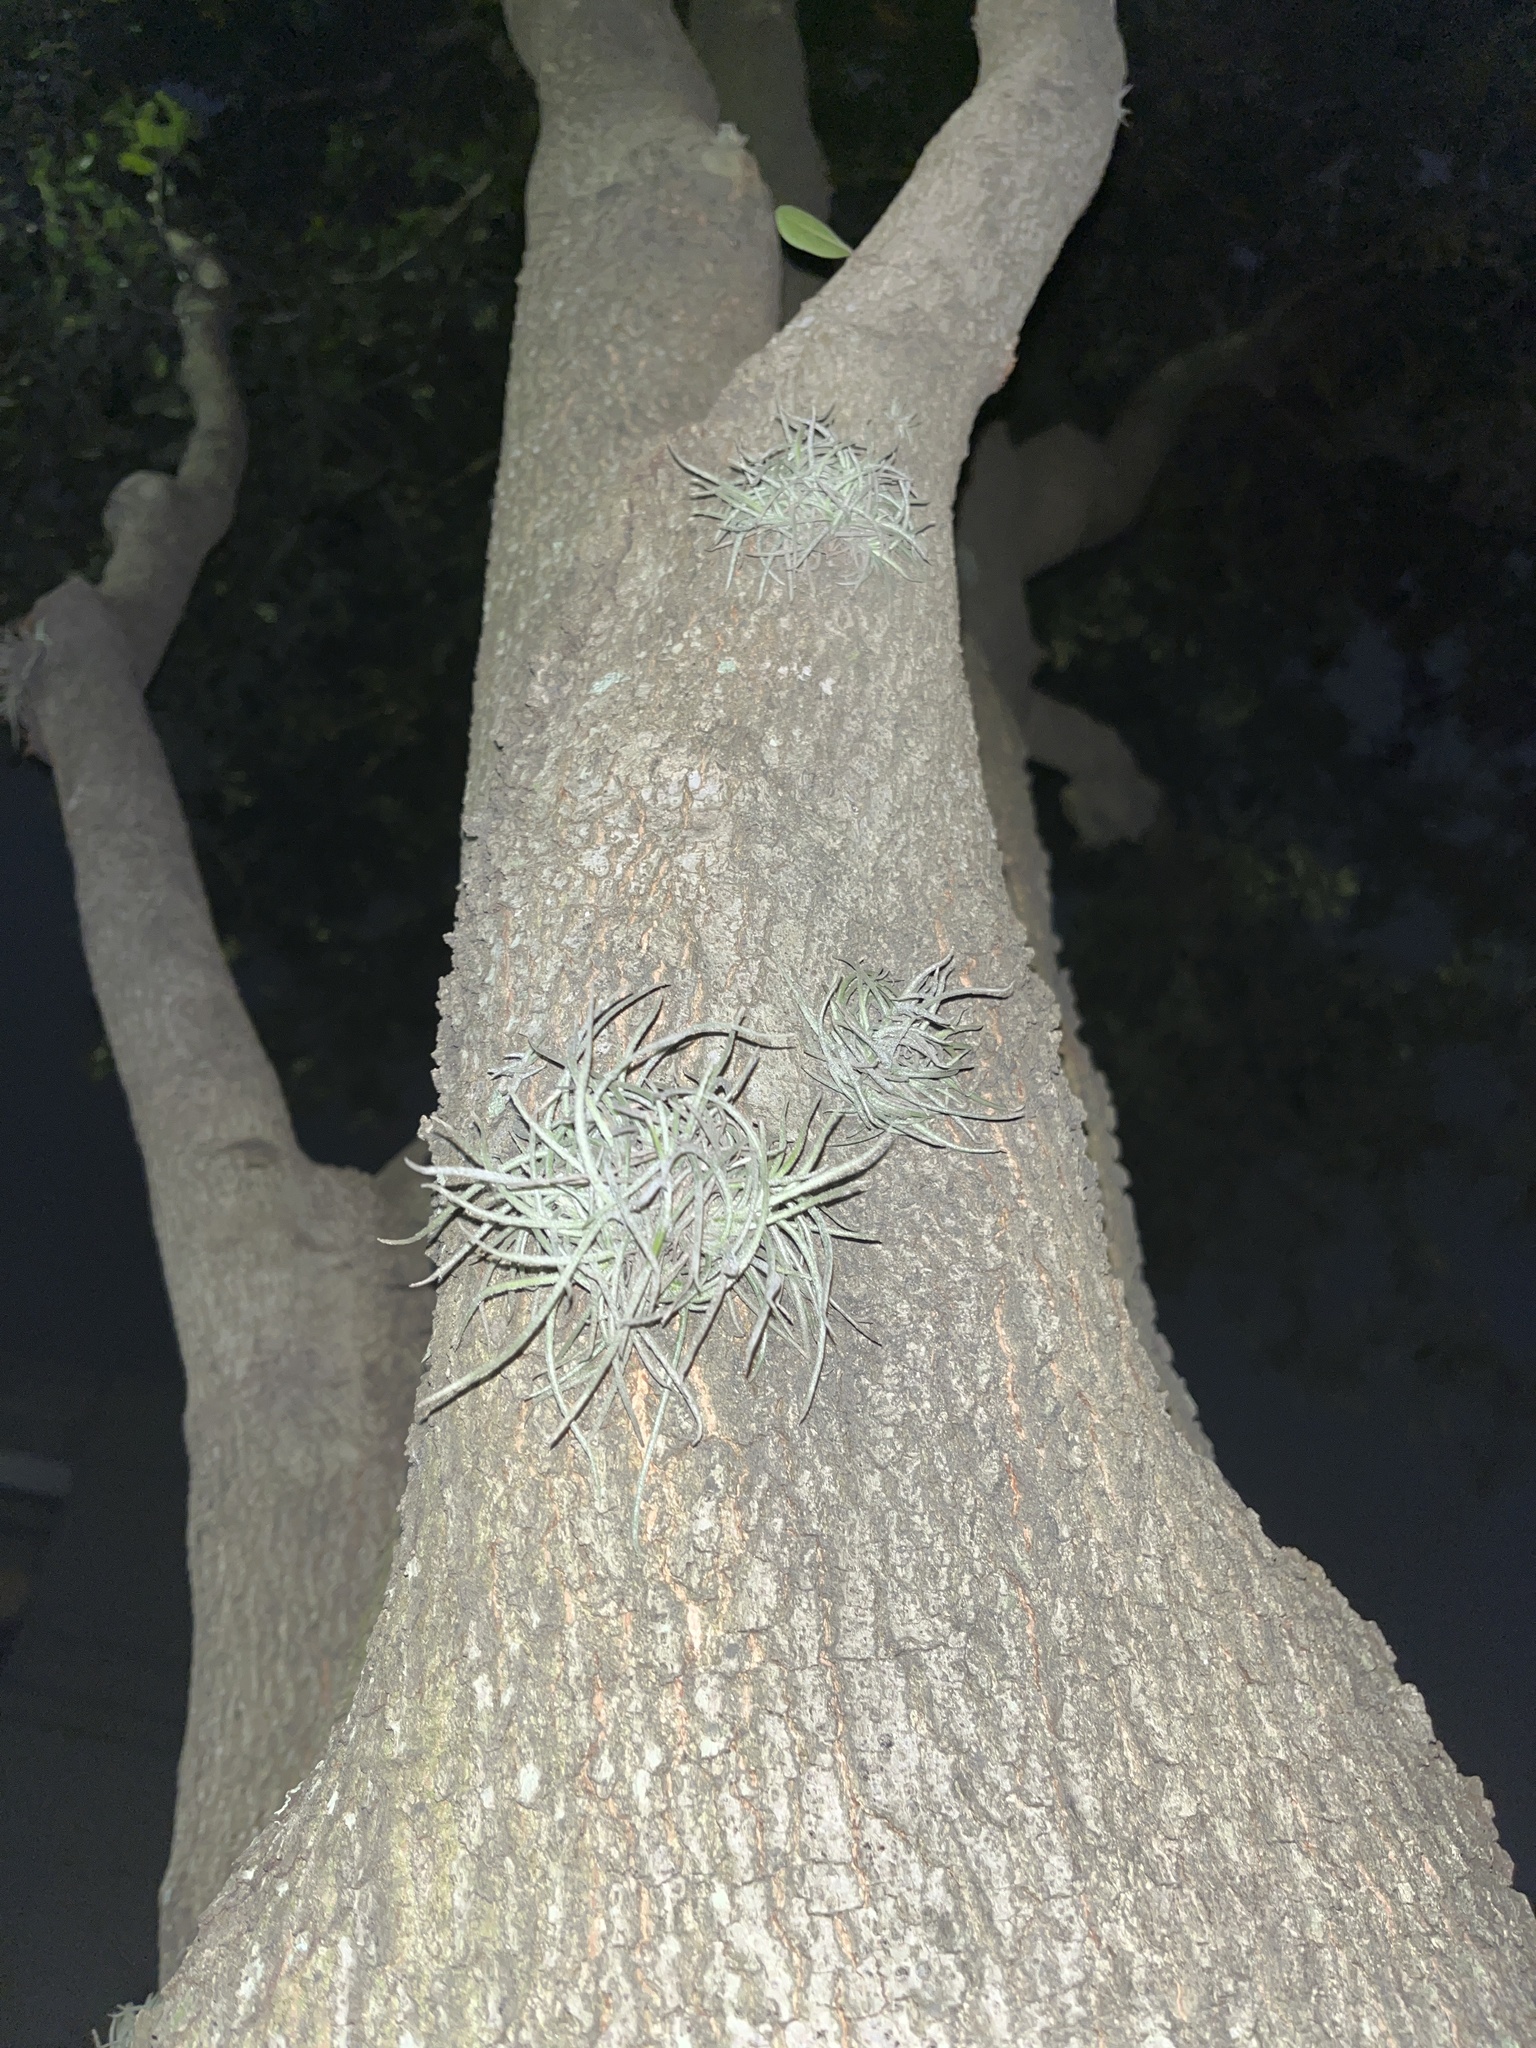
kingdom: Plantae
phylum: Tracheophyta
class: Liliopsida
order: Poales
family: Bromeliaceae
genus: Tillandsia
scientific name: Tillandsia recurvata
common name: Small ballmoss
